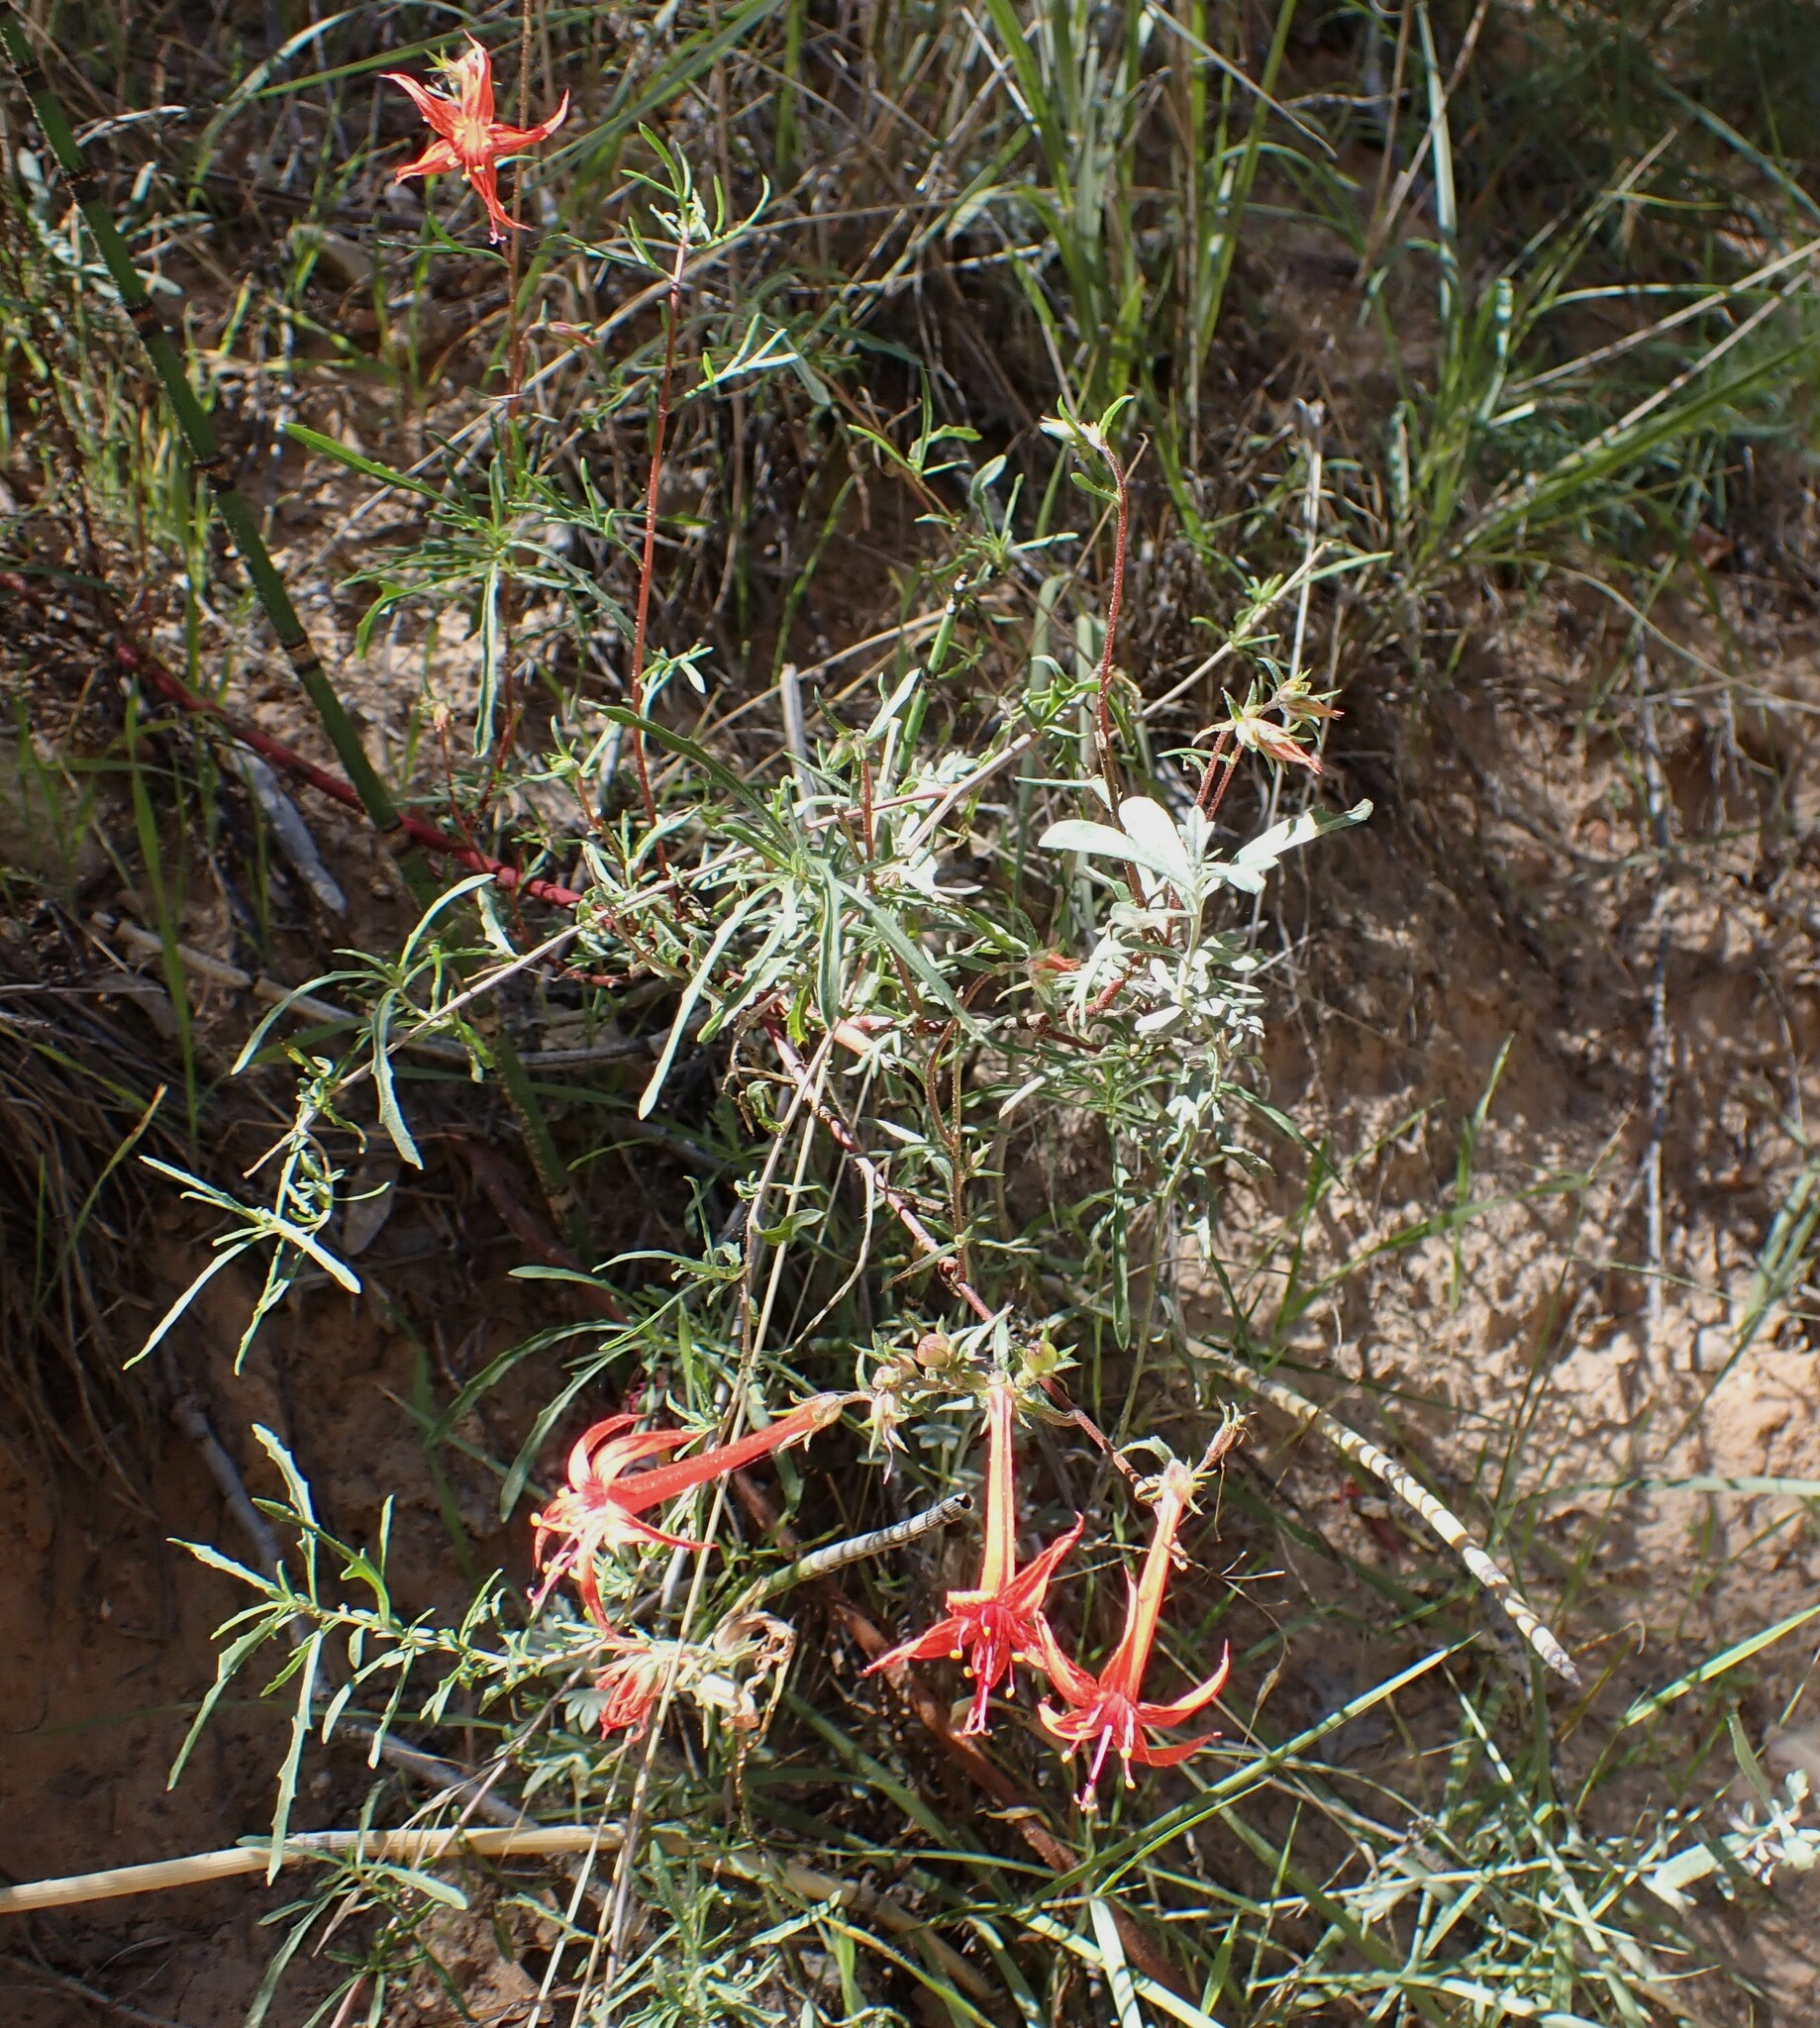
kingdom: Plantae
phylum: Tracheophyta
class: Magnoliopsida
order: Ericales
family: Polemoniaceae
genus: Ipomopsis
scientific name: Ipomopsis aggregata
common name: Scarlet gilia
